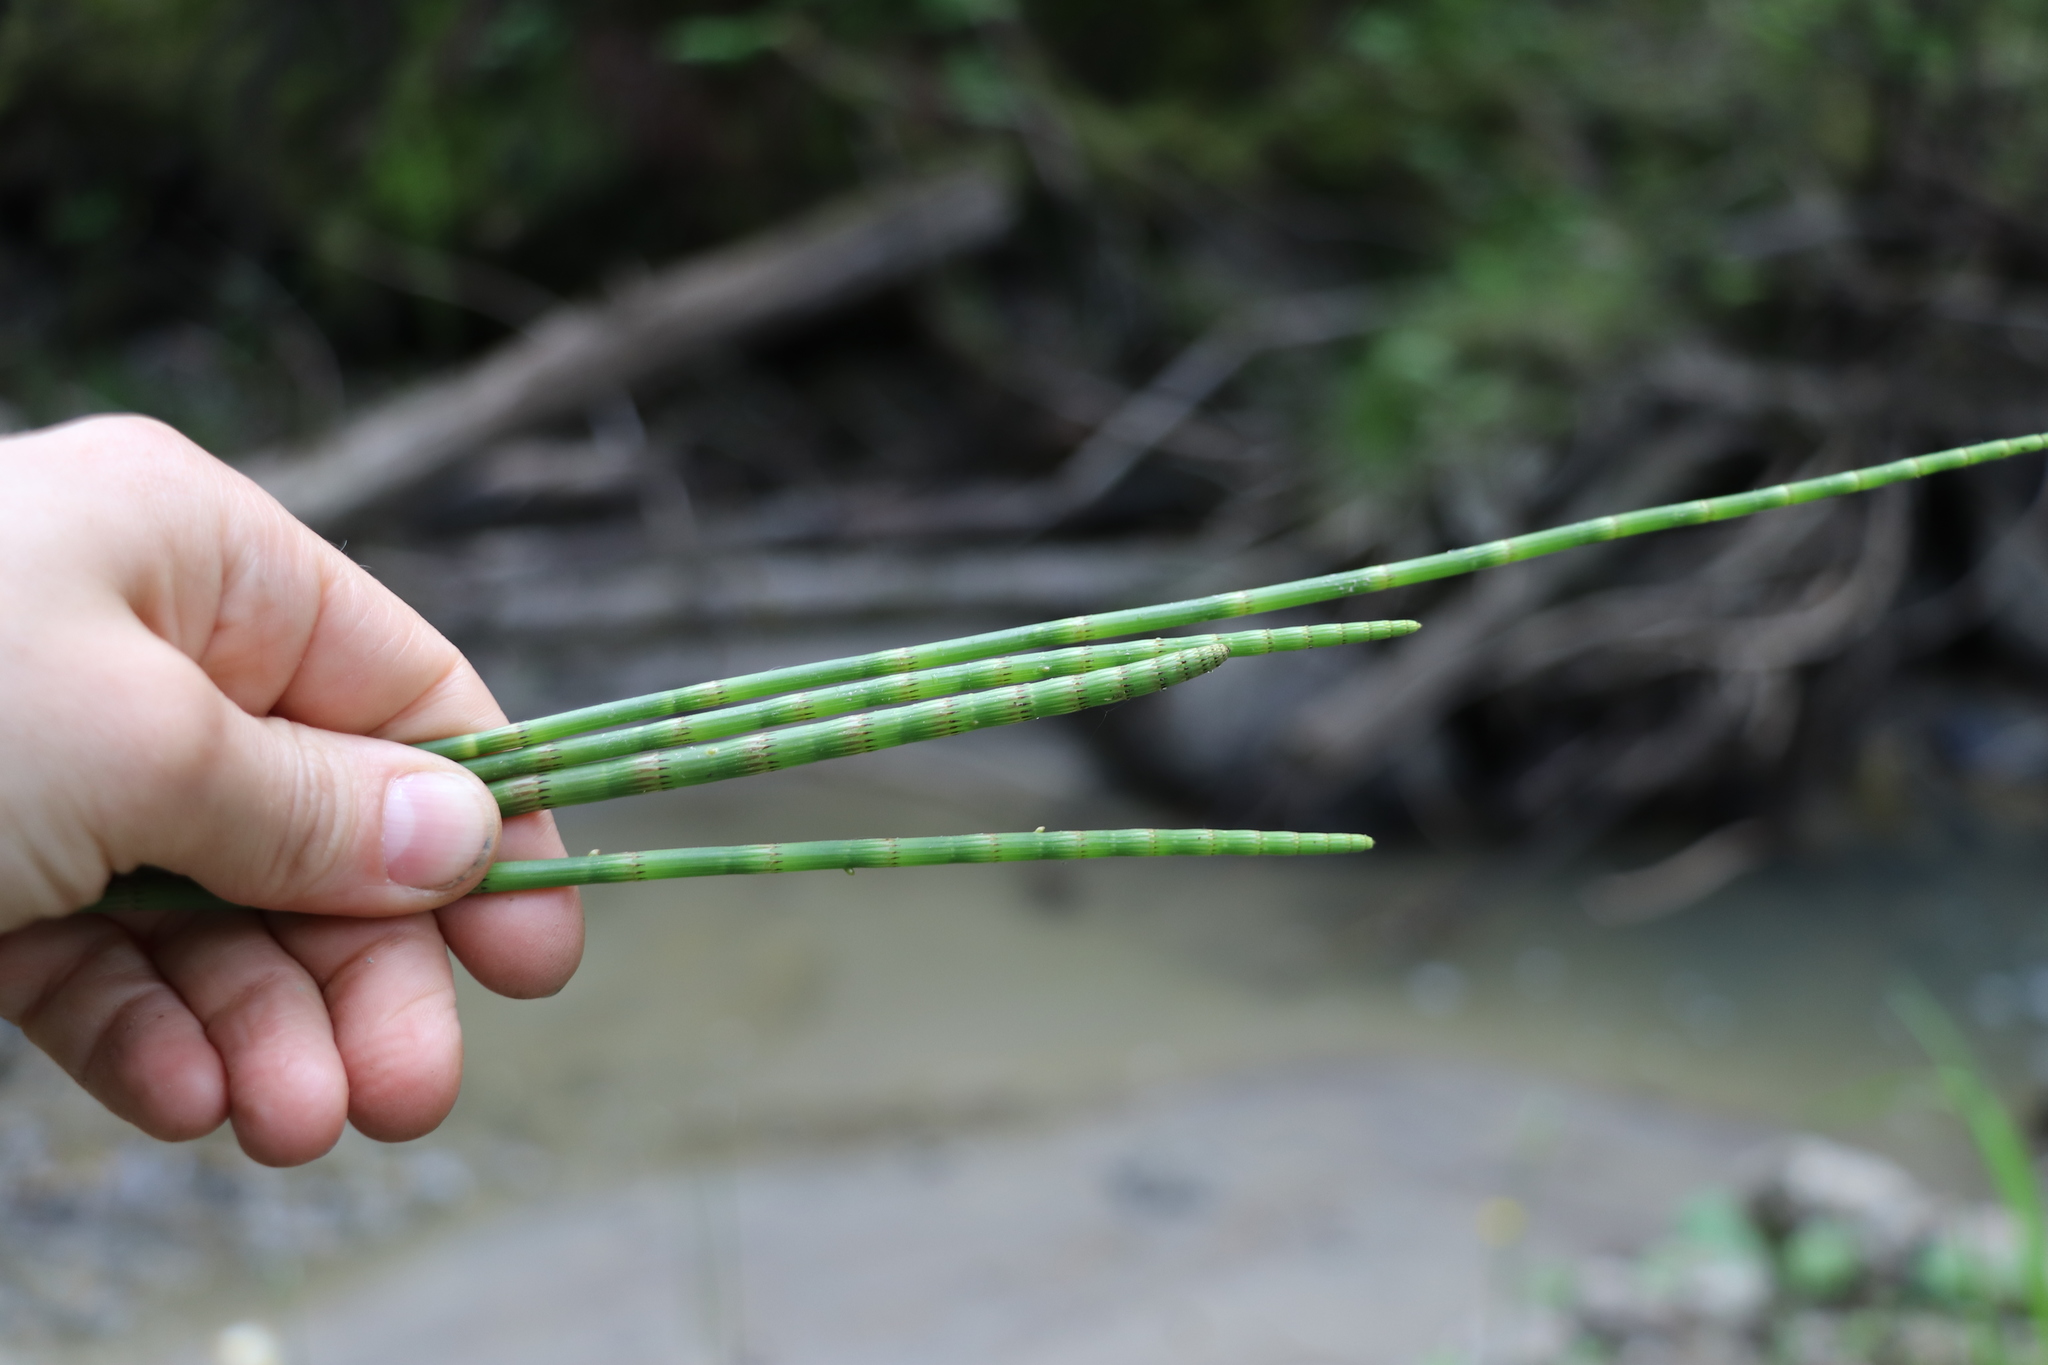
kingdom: Plantae
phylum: Tracheophyta
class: Polypodiopsida
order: Equisetales
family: Equisetaceae
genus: Equisetum
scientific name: Equisetum fluviatile
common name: Water horsetail
